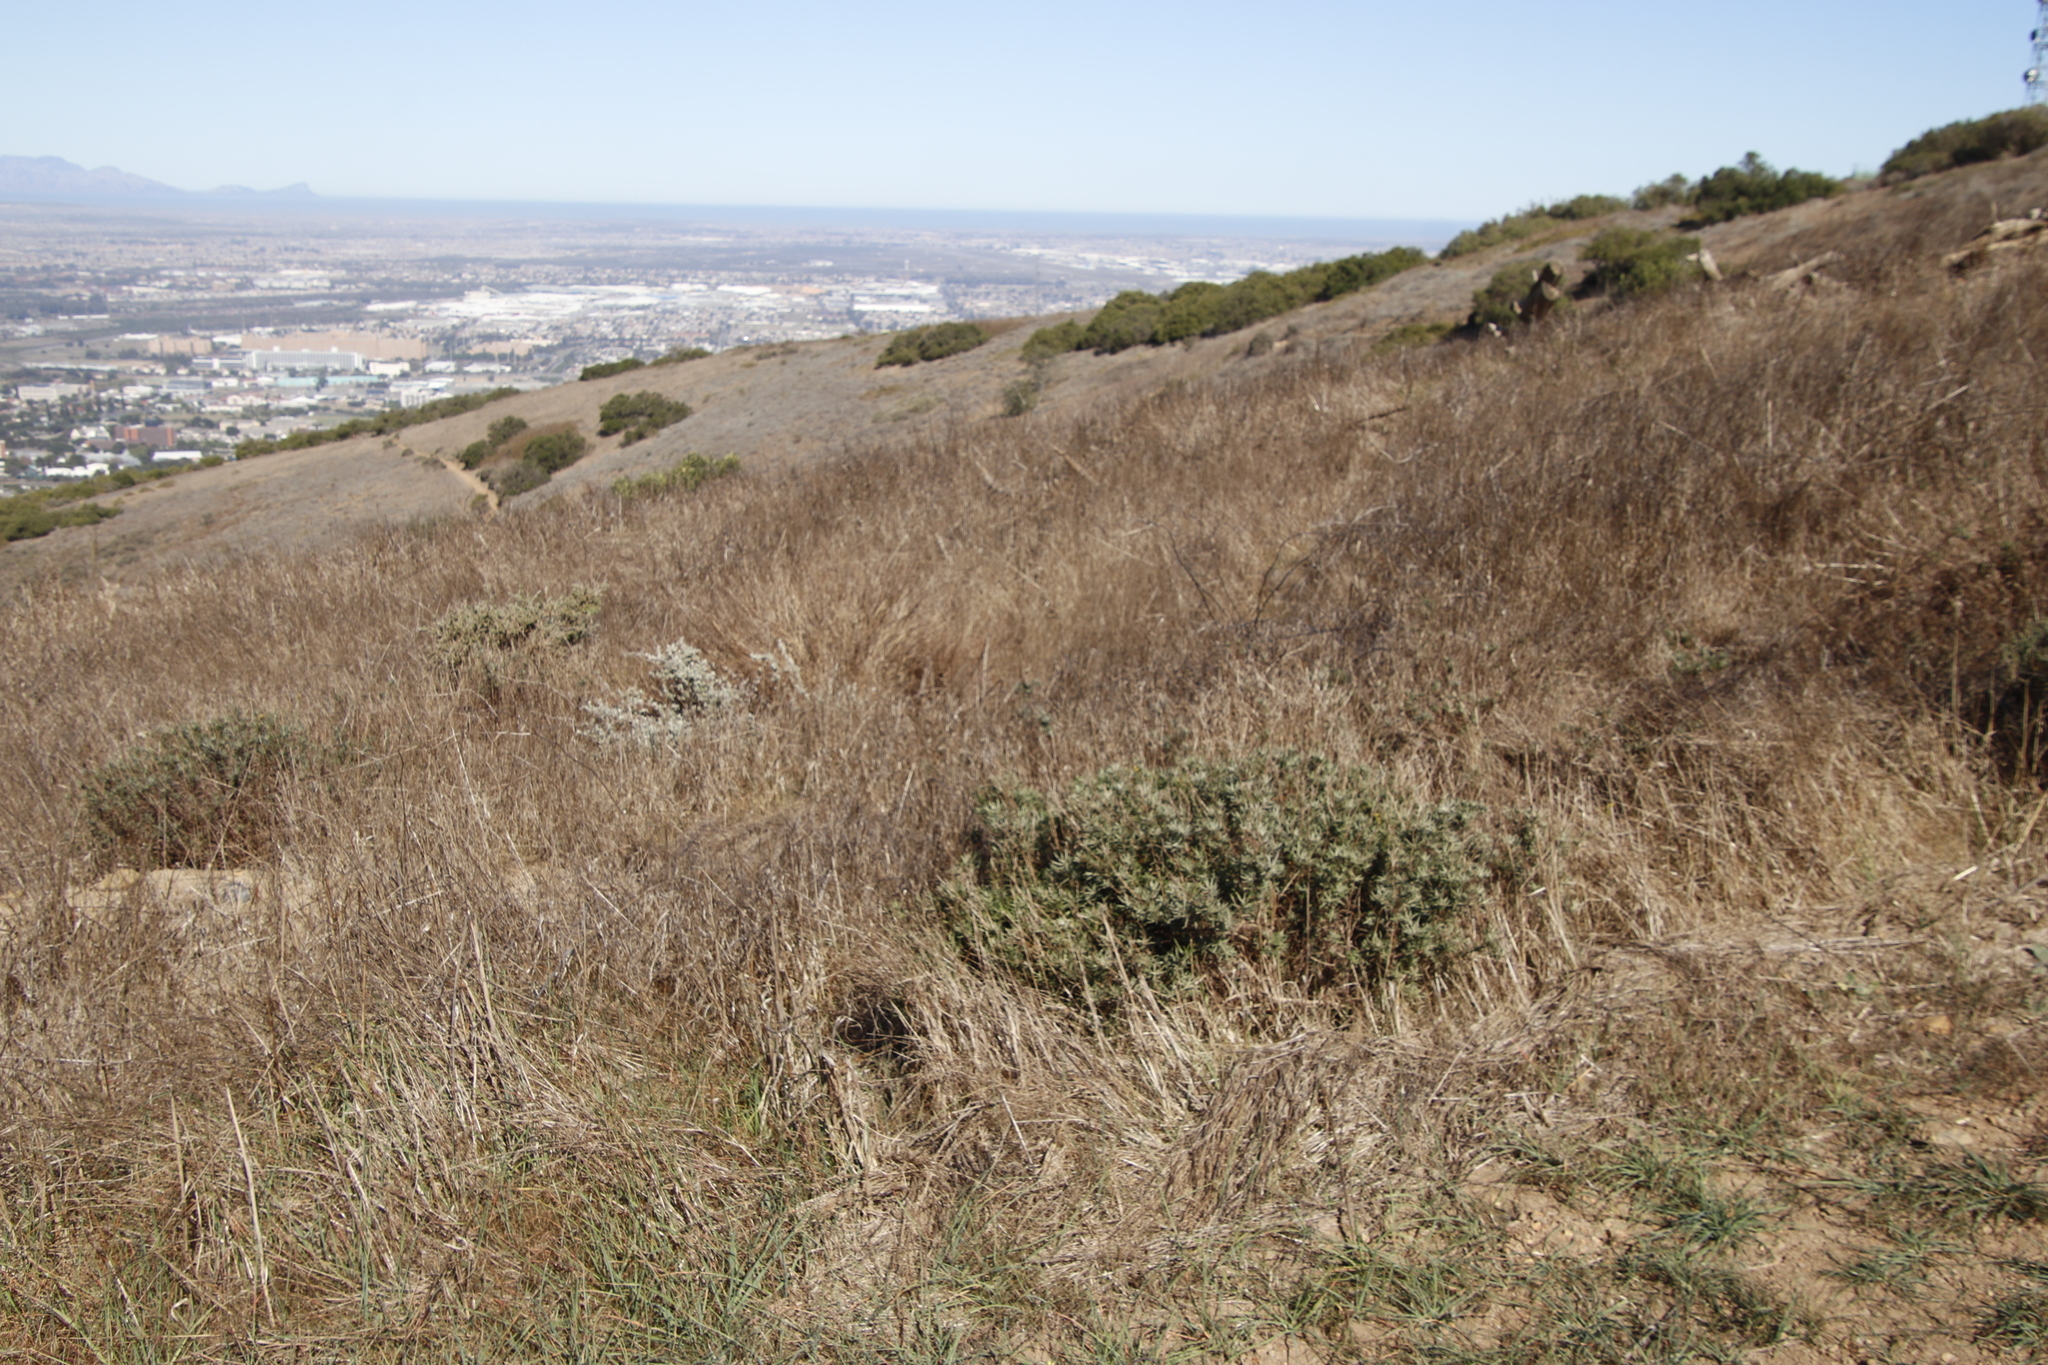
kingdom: Plantae
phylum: Tracheophyta
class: Magnoliopsida
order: Asterales
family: Asteraceae
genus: Senecio
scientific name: Senecio pterophorus
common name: Shoddy ragwort
